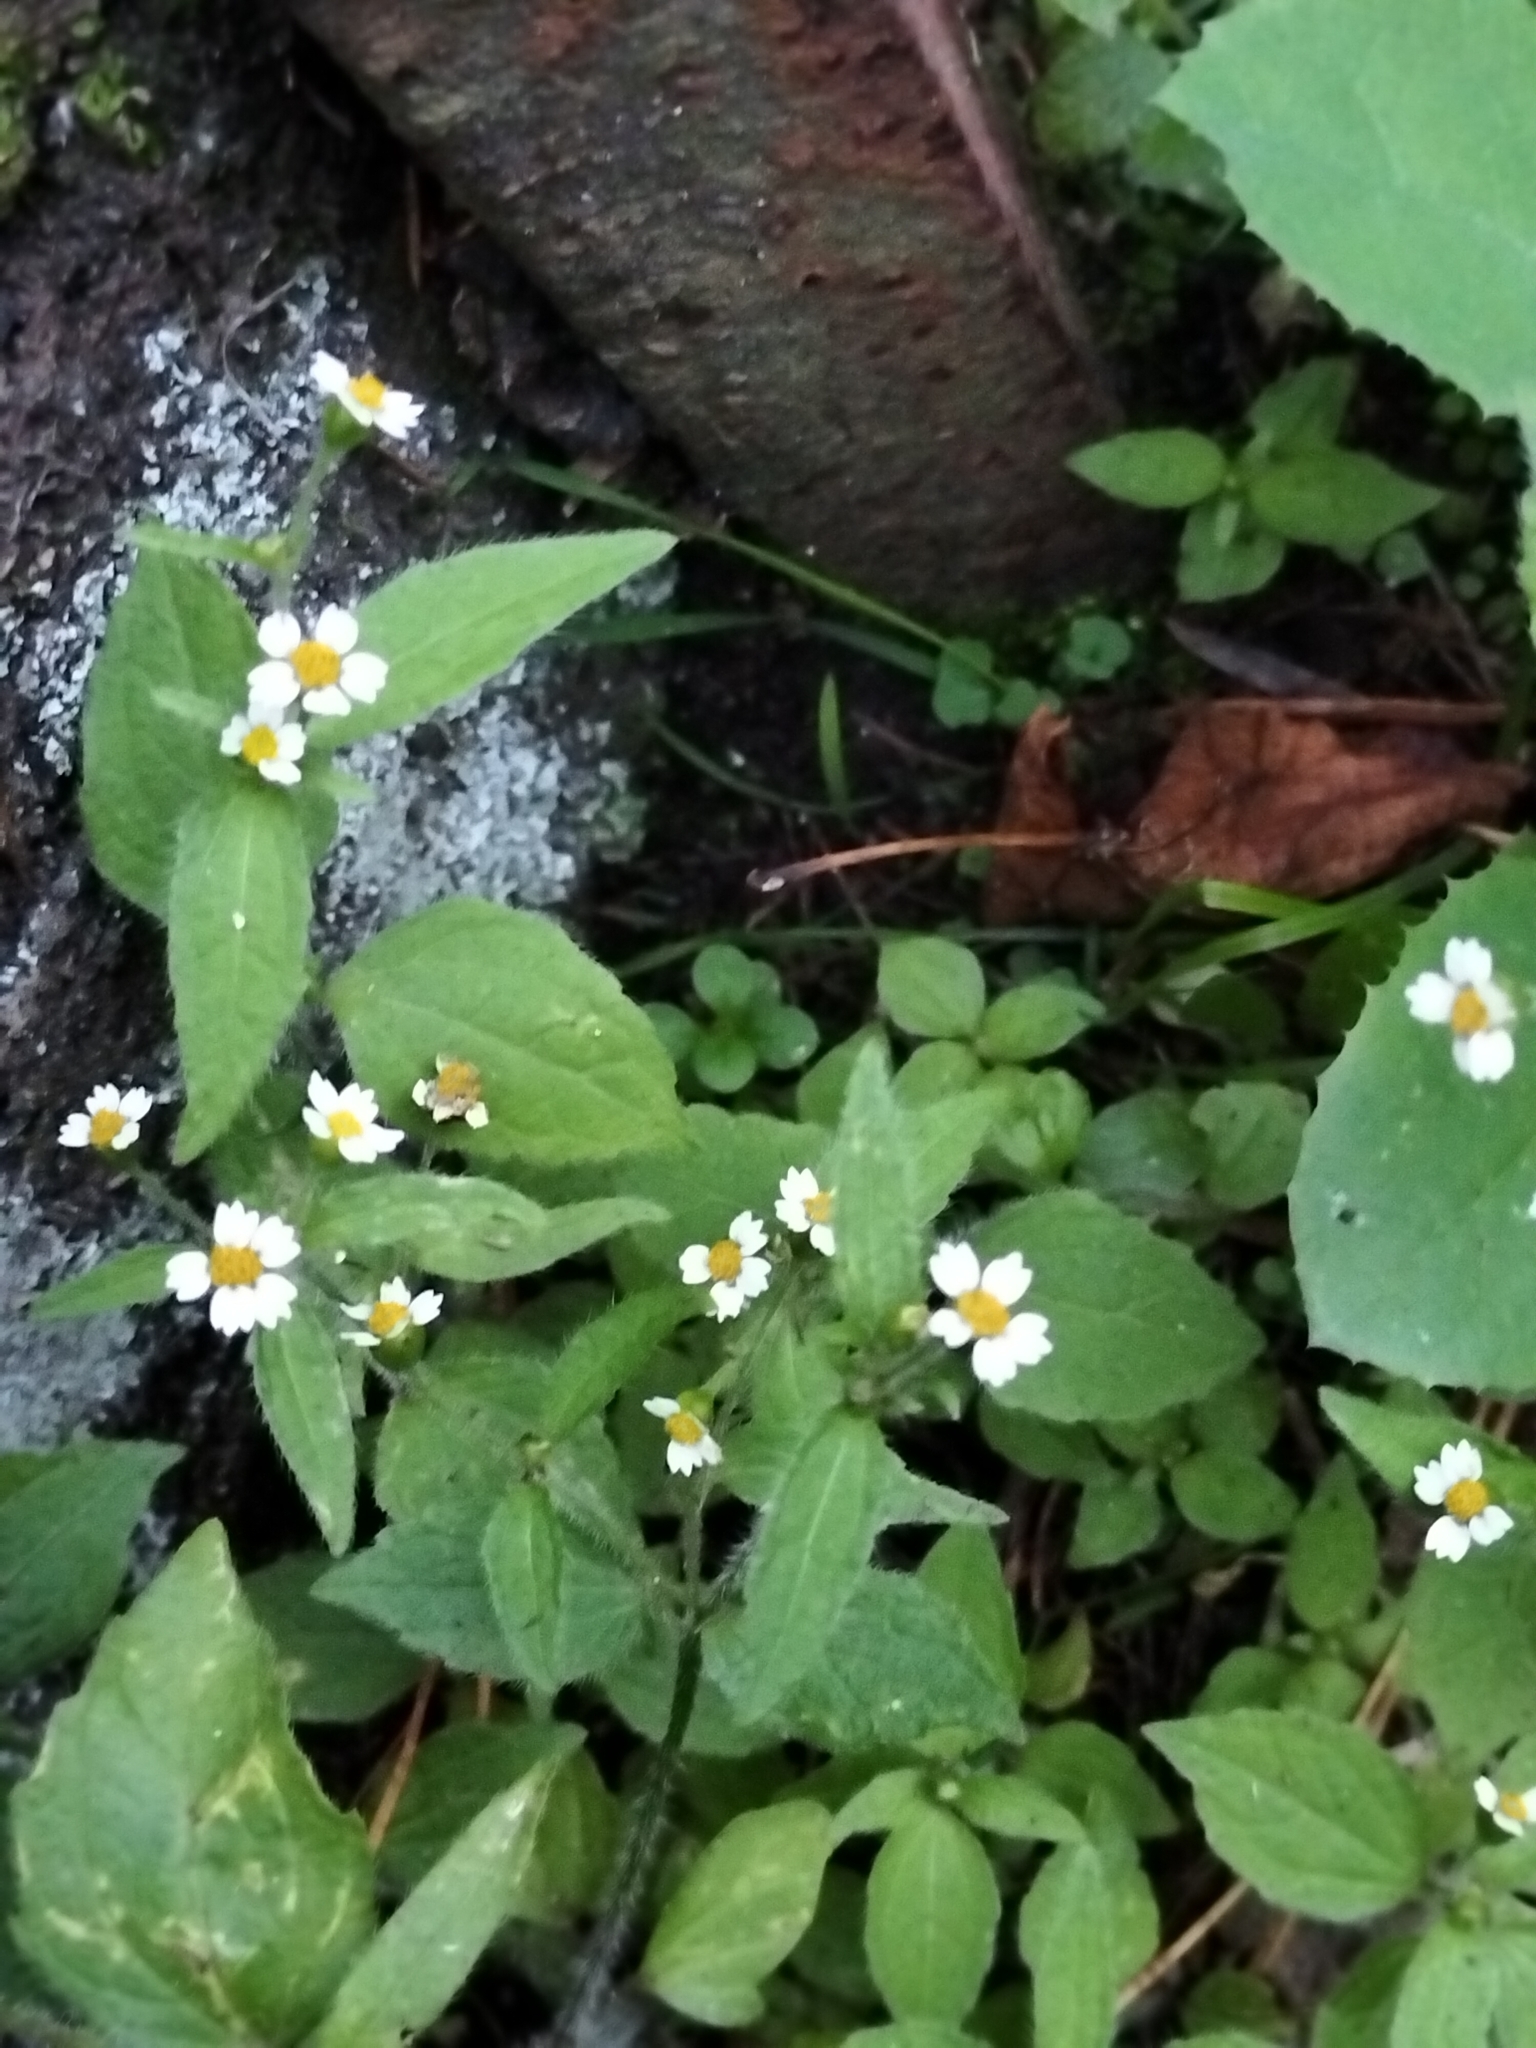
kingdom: Plantae
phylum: Tracheophyta
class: Magnoliopsida
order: Asterales
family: Asteraceae
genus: Galinsoga
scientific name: Galinsoga quadriradiata
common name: Shaggy soldier
